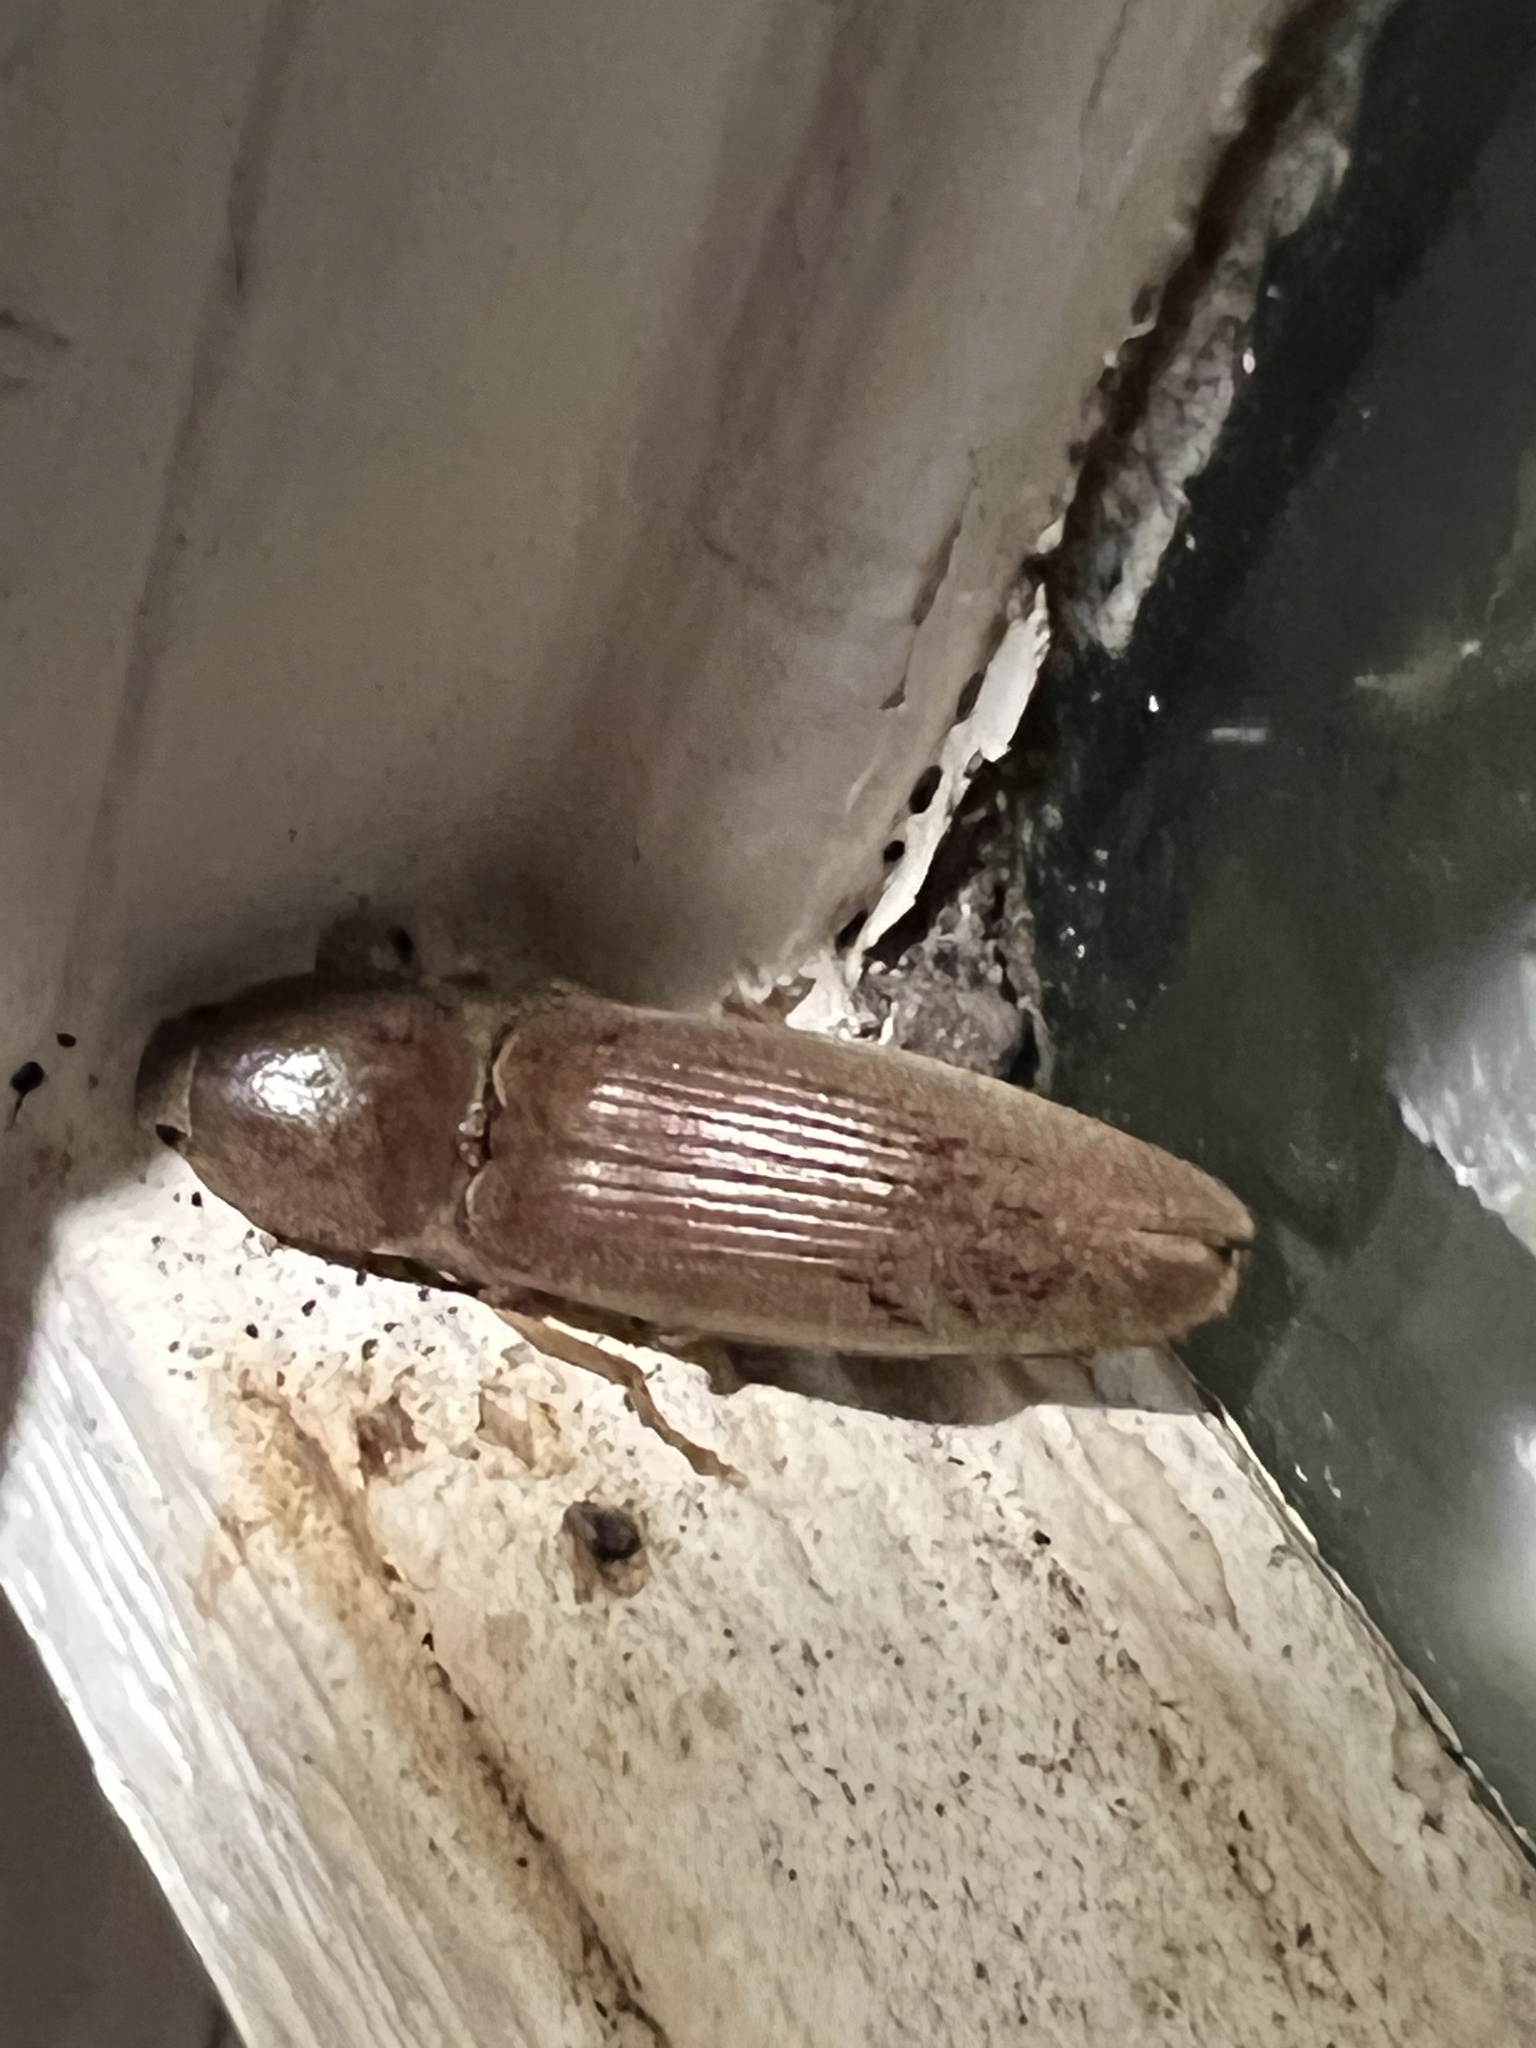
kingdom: Animalia
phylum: Arthropoda
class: Insecta
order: Coleoptera
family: Elateridae
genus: Monocrepidius
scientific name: Monocrepidius lividus
